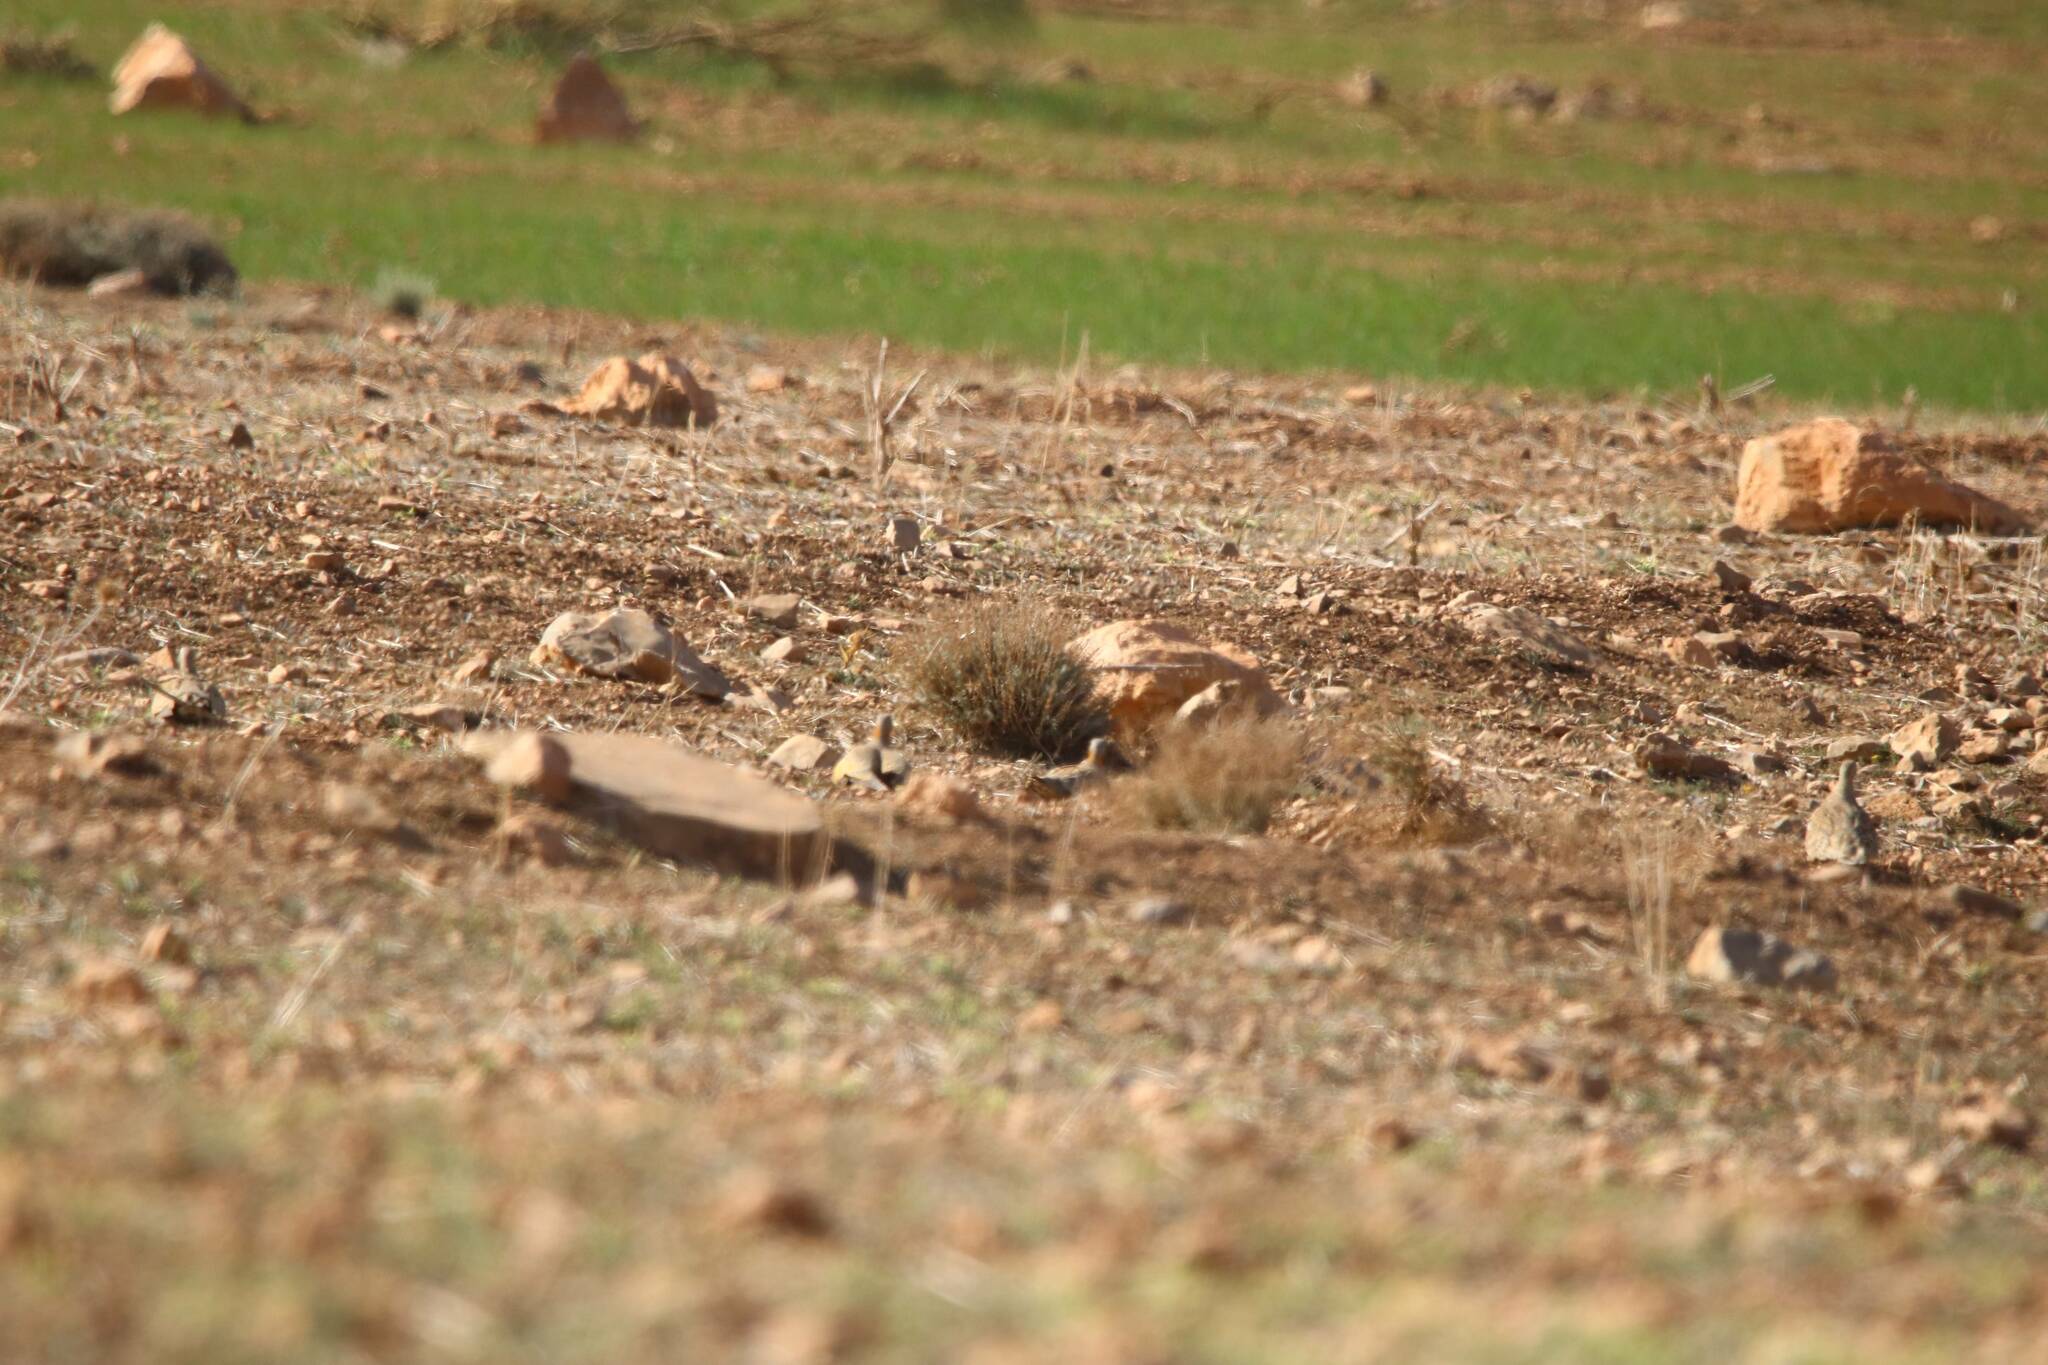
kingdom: Animalia
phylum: Chordata
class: Aves
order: Pteroclidiformes
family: Pteroclididae
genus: Pterocles
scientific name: Pterocles orientalis
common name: Black-bellied sandgrouse
